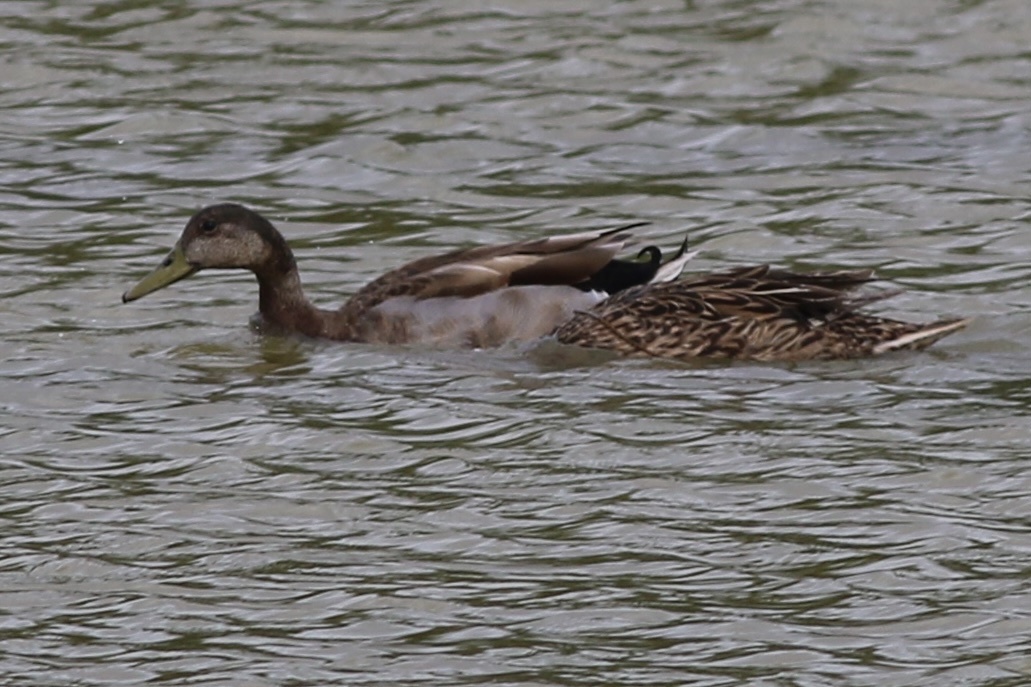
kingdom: Animalia
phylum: Chordata
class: Aves
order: Anseriformes
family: Anatidae
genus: Anas
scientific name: Anas
